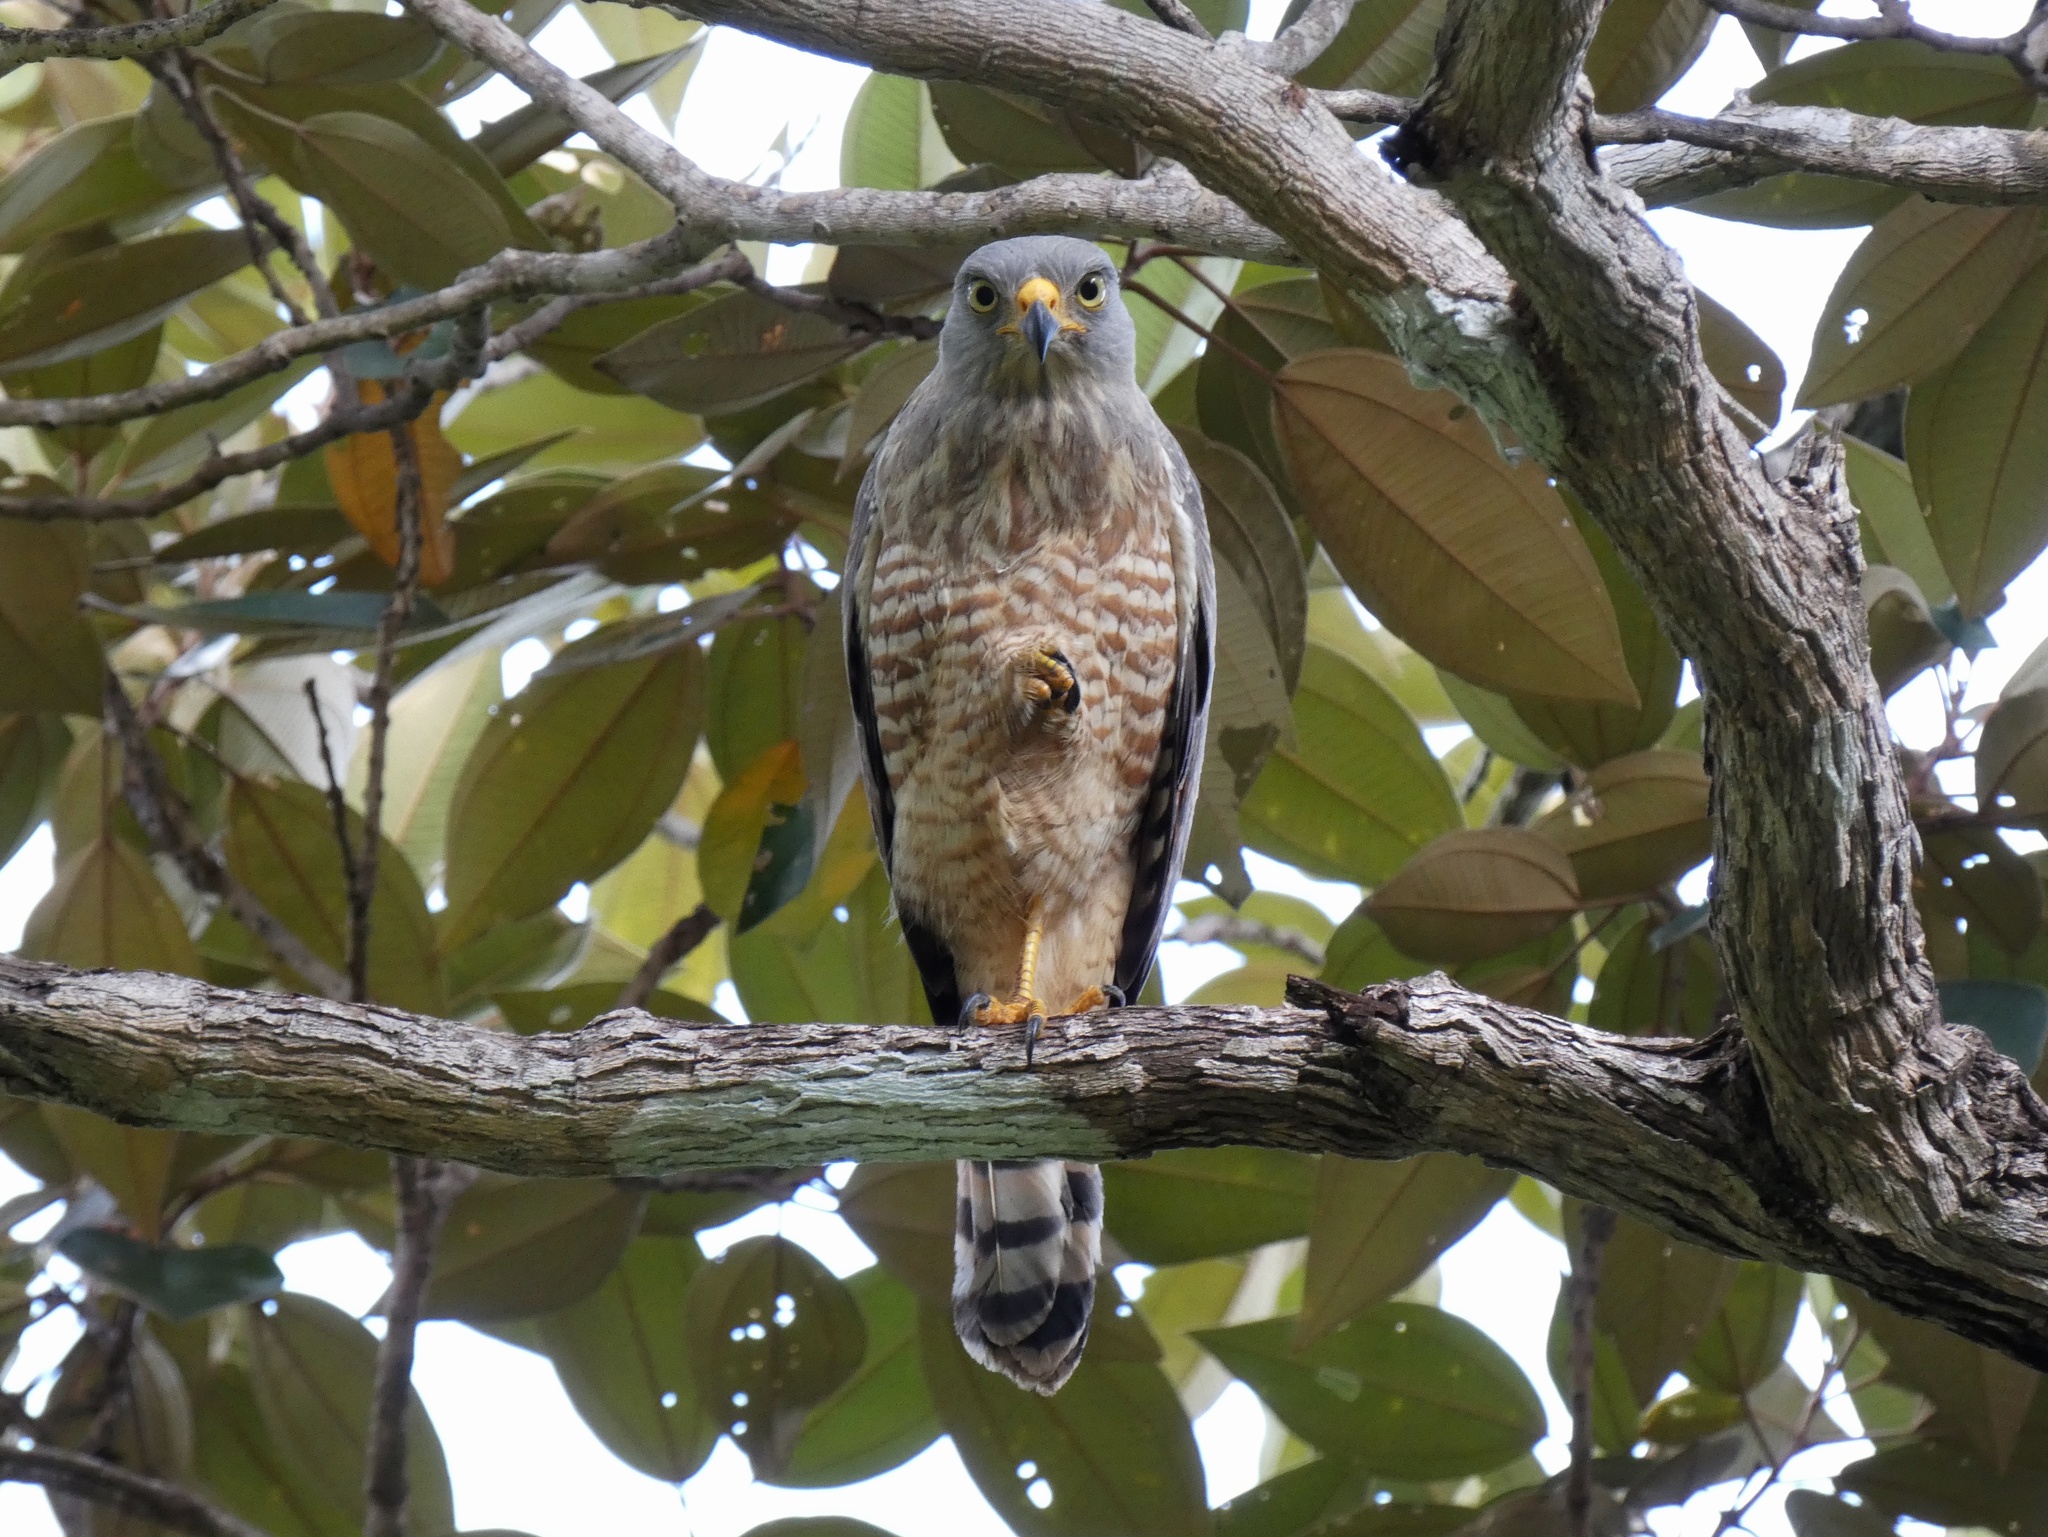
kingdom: Animalia
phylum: Chordata
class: Aves
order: Accipitriformes
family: Accipitridae
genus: Rupornis
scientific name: Rupornis magnirostris
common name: Roadside hawk
